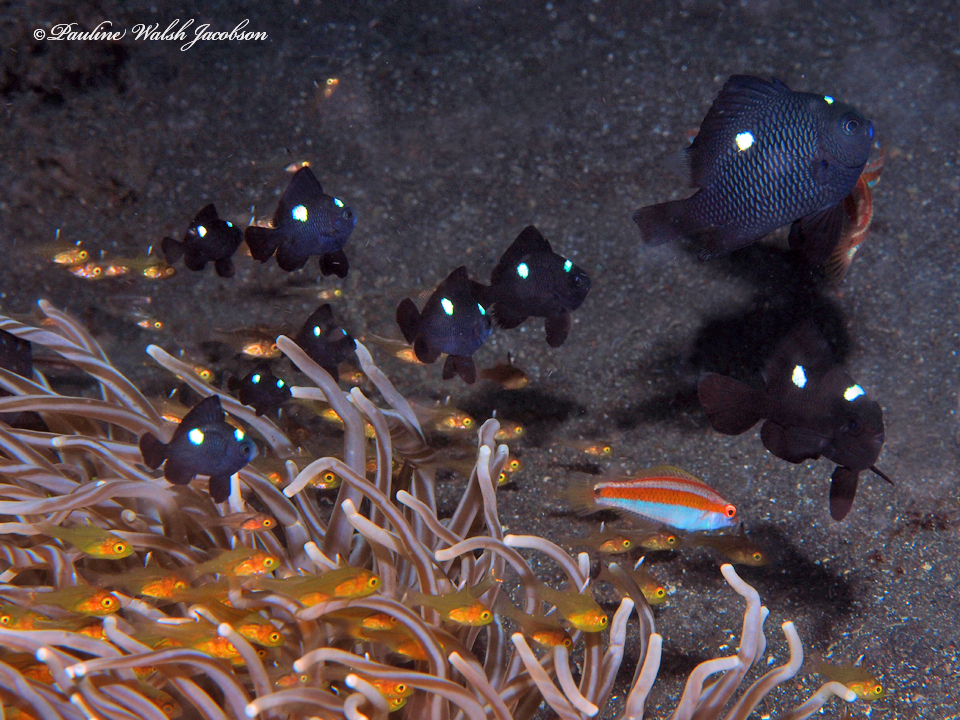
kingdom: Animalia
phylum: Chordata
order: Perciformes
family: Pomacentridae
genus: Dascyllus
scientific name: Dascyllus trimaculatus
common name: Threespot dascyllus
